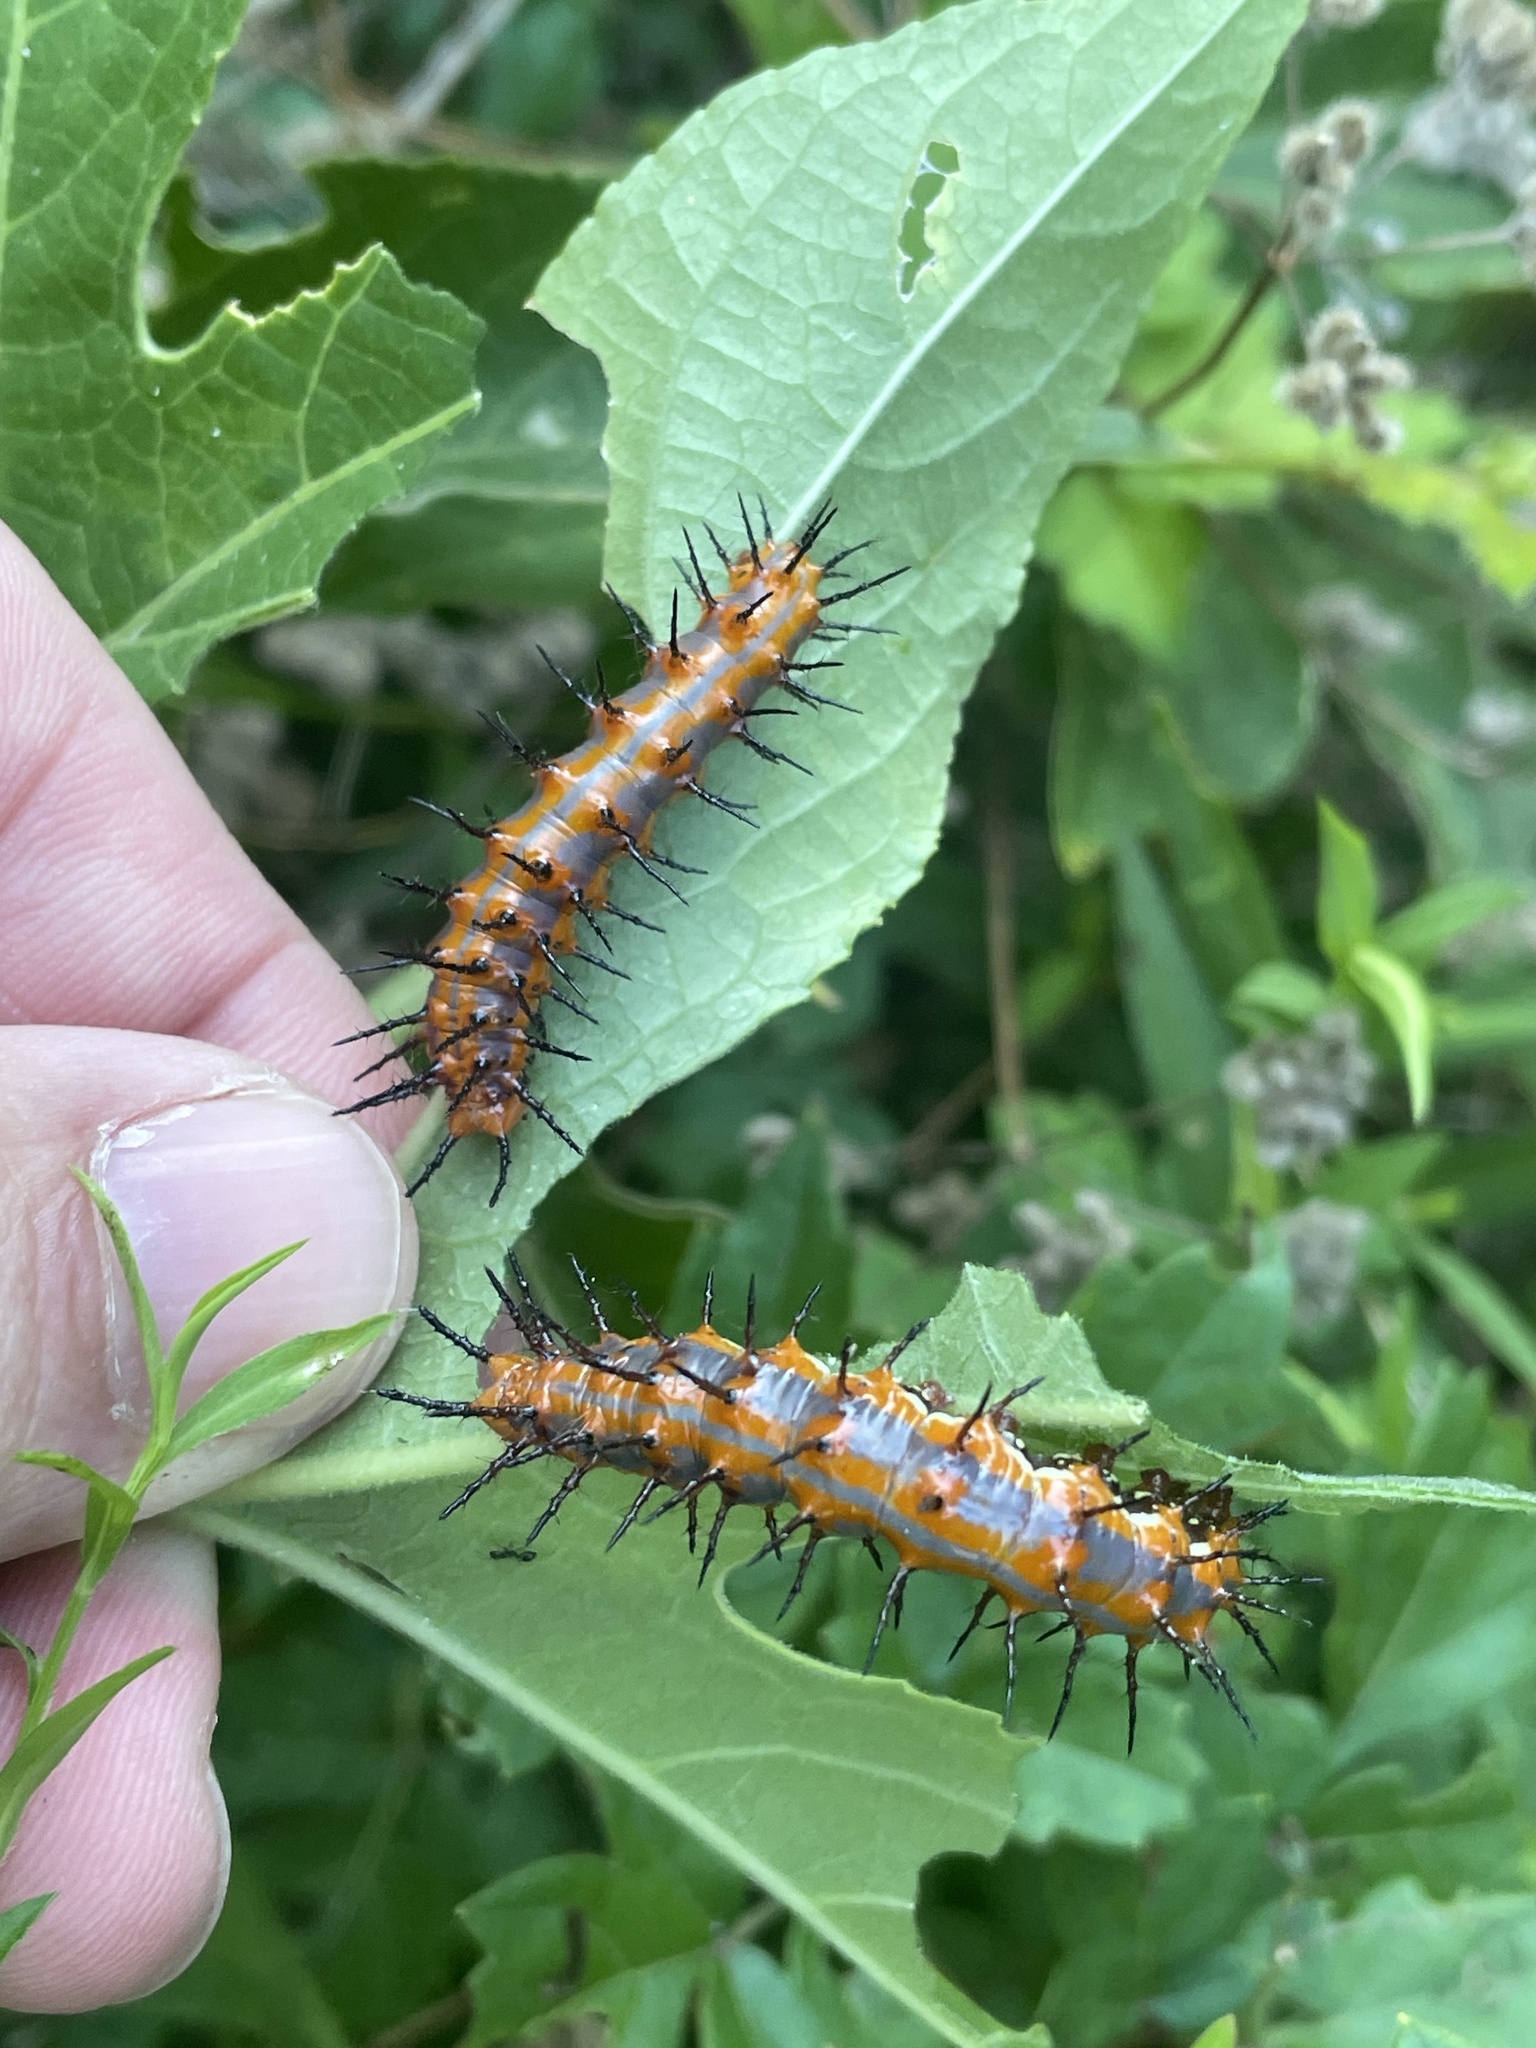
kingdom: Animalia
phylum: Arthropoda
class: Insecta
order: Lepidoptera
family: Nymphalidae
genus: Dione
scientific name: Dione vanillae
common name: Gulf fritillary
